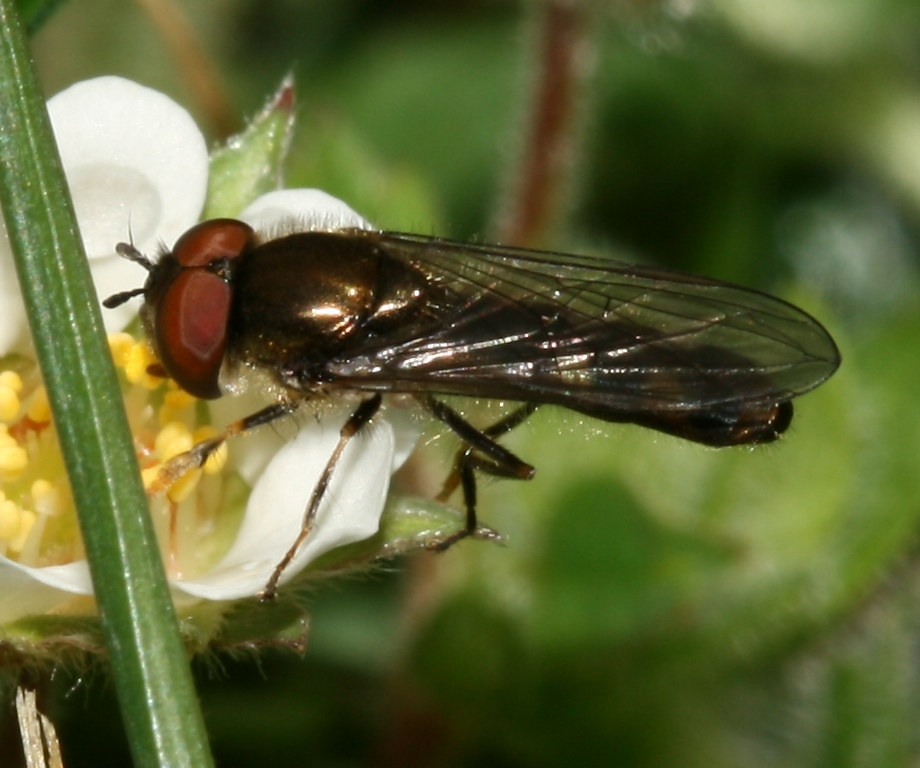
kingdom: Animalia
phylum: Arthropoda
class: Insecta
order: Diptera
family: Syrphidae
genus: Platycheirus
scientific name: Platycheirus albimanus
